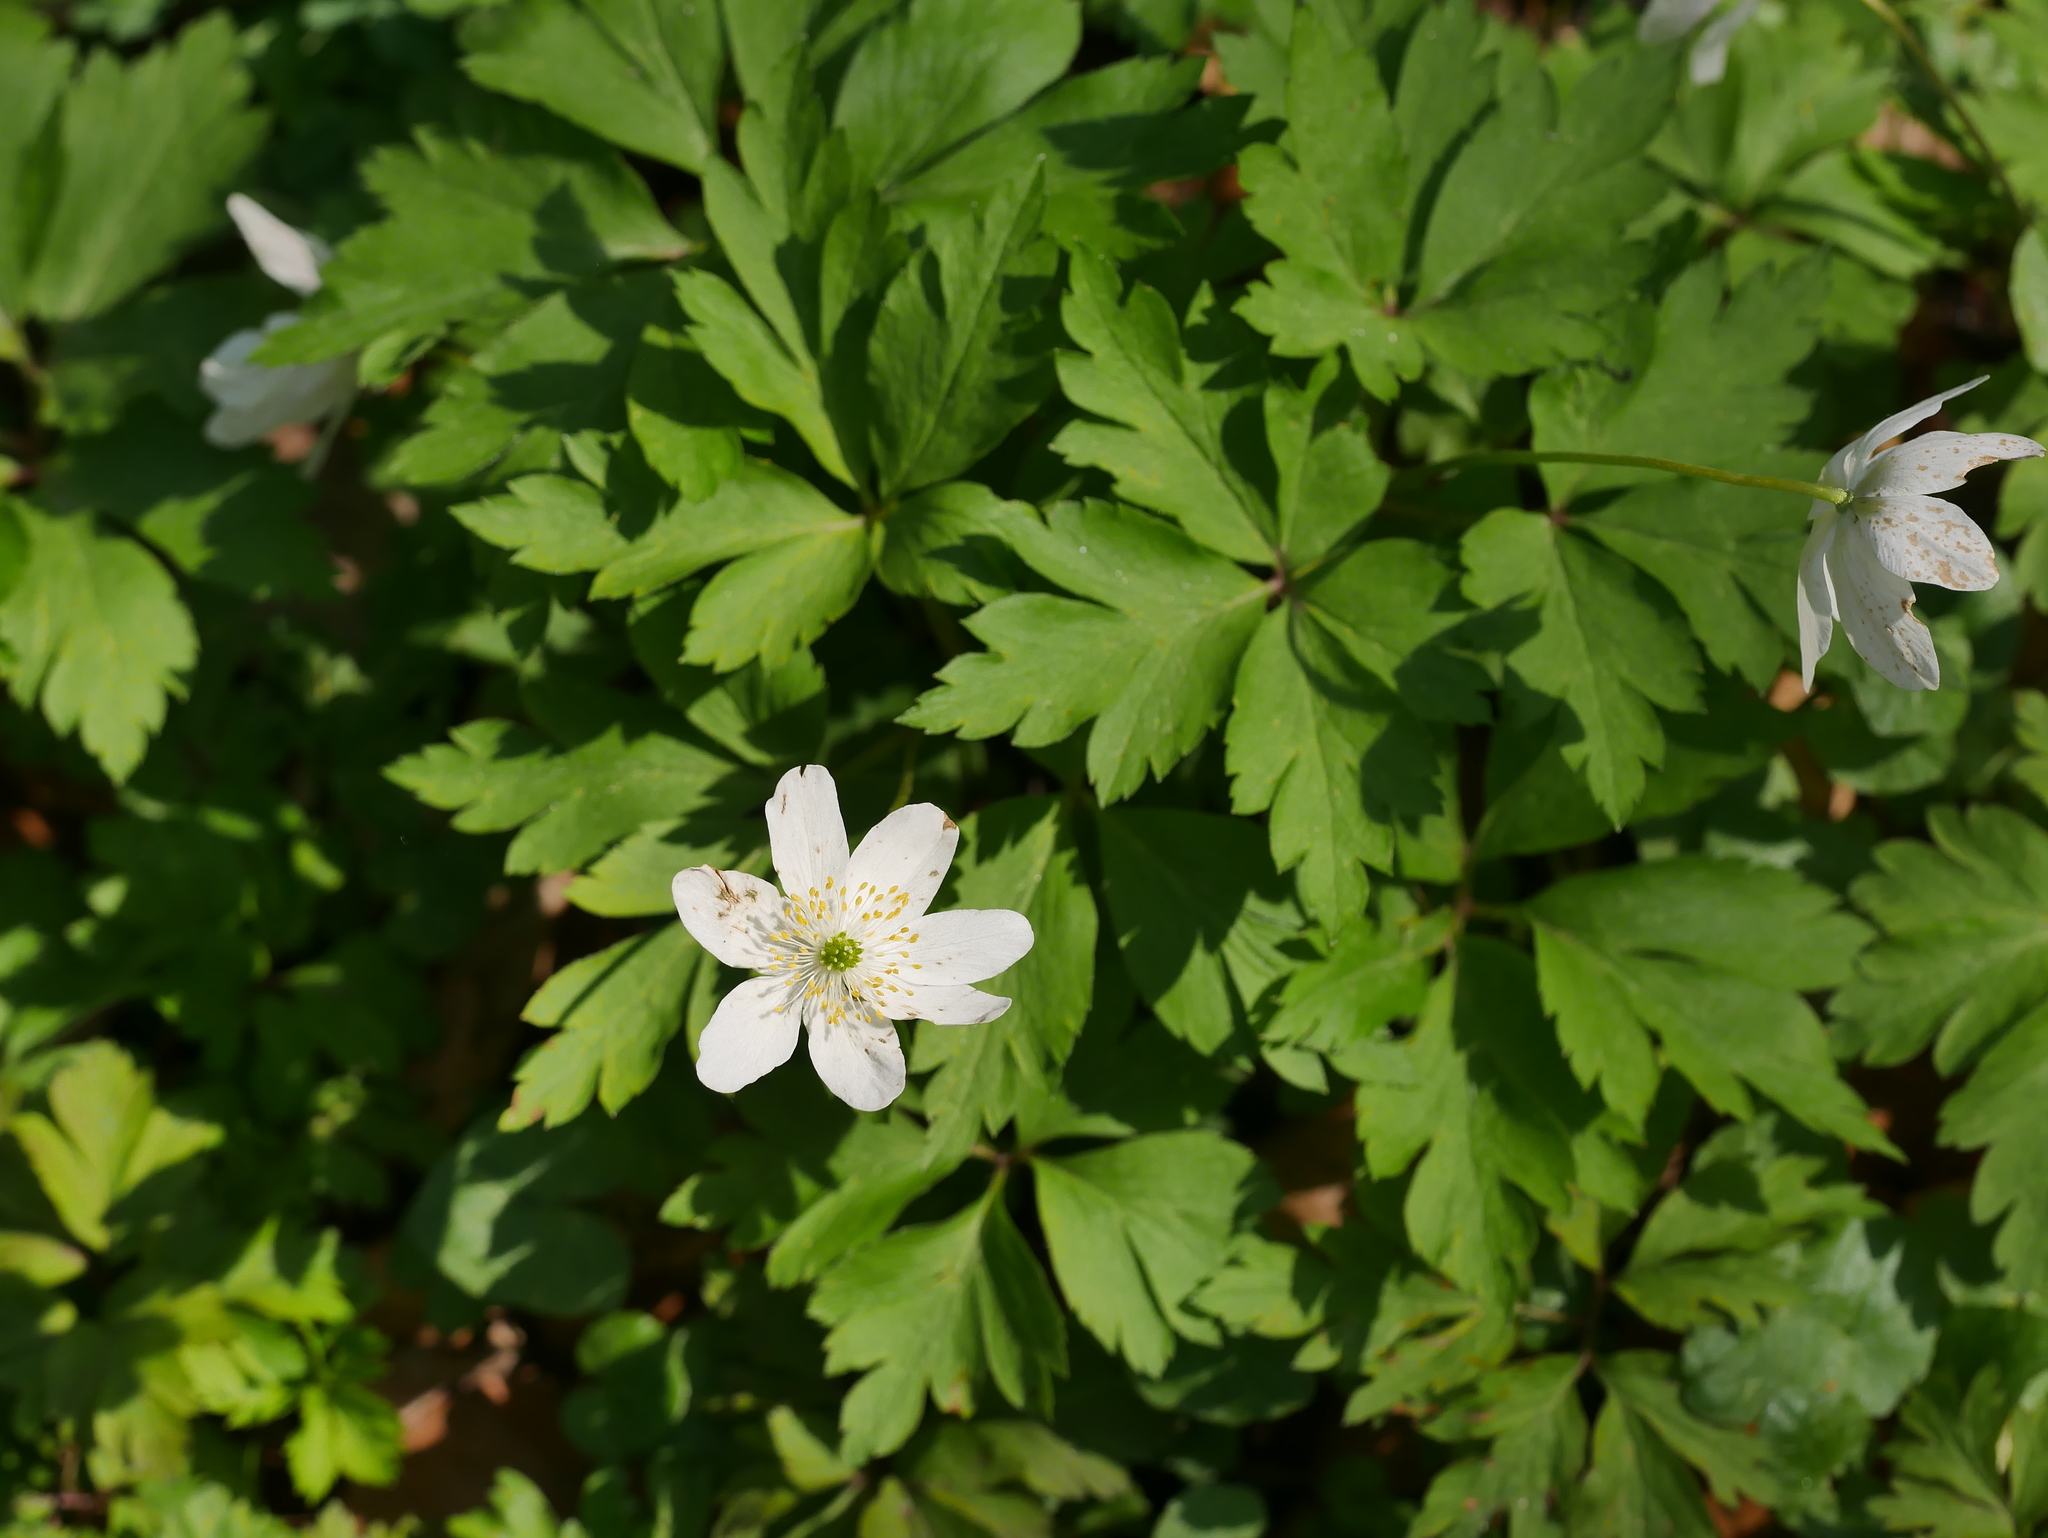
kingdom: Plantae
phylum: Tracheophyta
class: Magnoliopsida
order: Ranunculales
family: Ranunculaceae
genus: Anemone
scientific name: Anemone nemorosa
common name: Wood anemone
